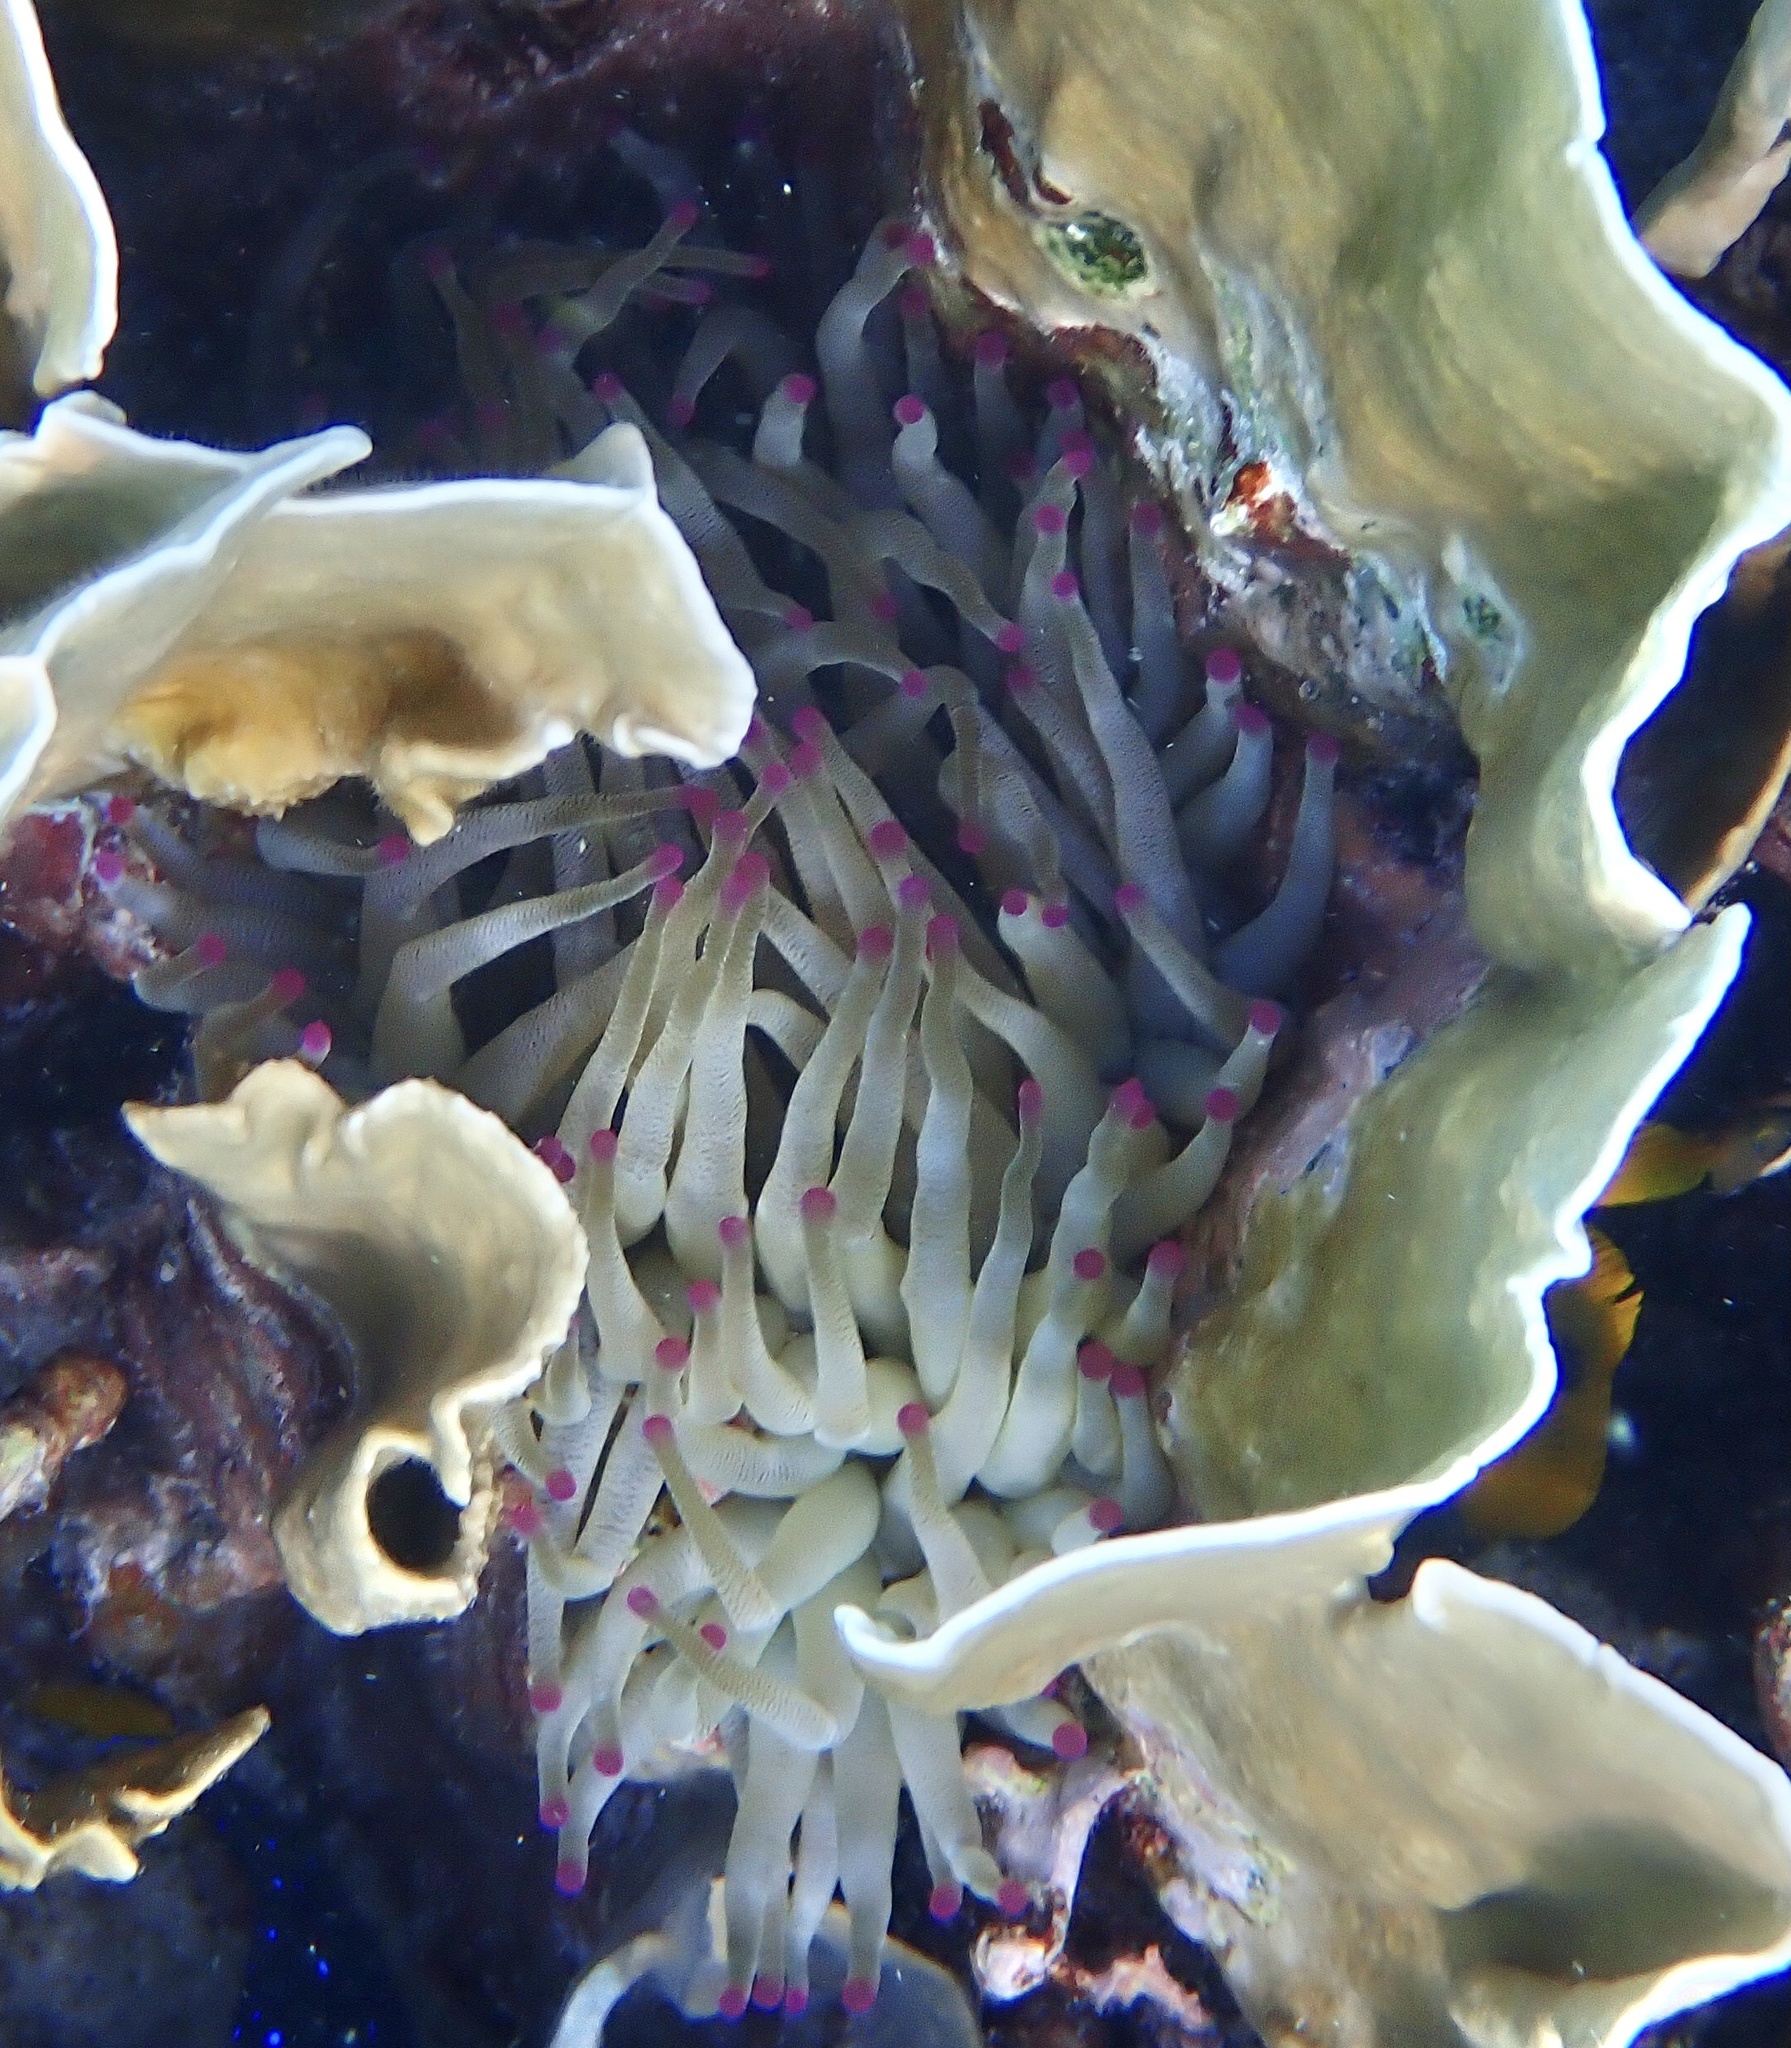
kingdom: Animalia
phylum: Cnidaria
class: Anthozoa
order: Actiniaria
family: Actiniidae
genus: Condylactis
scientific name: Condylactis gigantea
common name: Giant caribbean anemone
